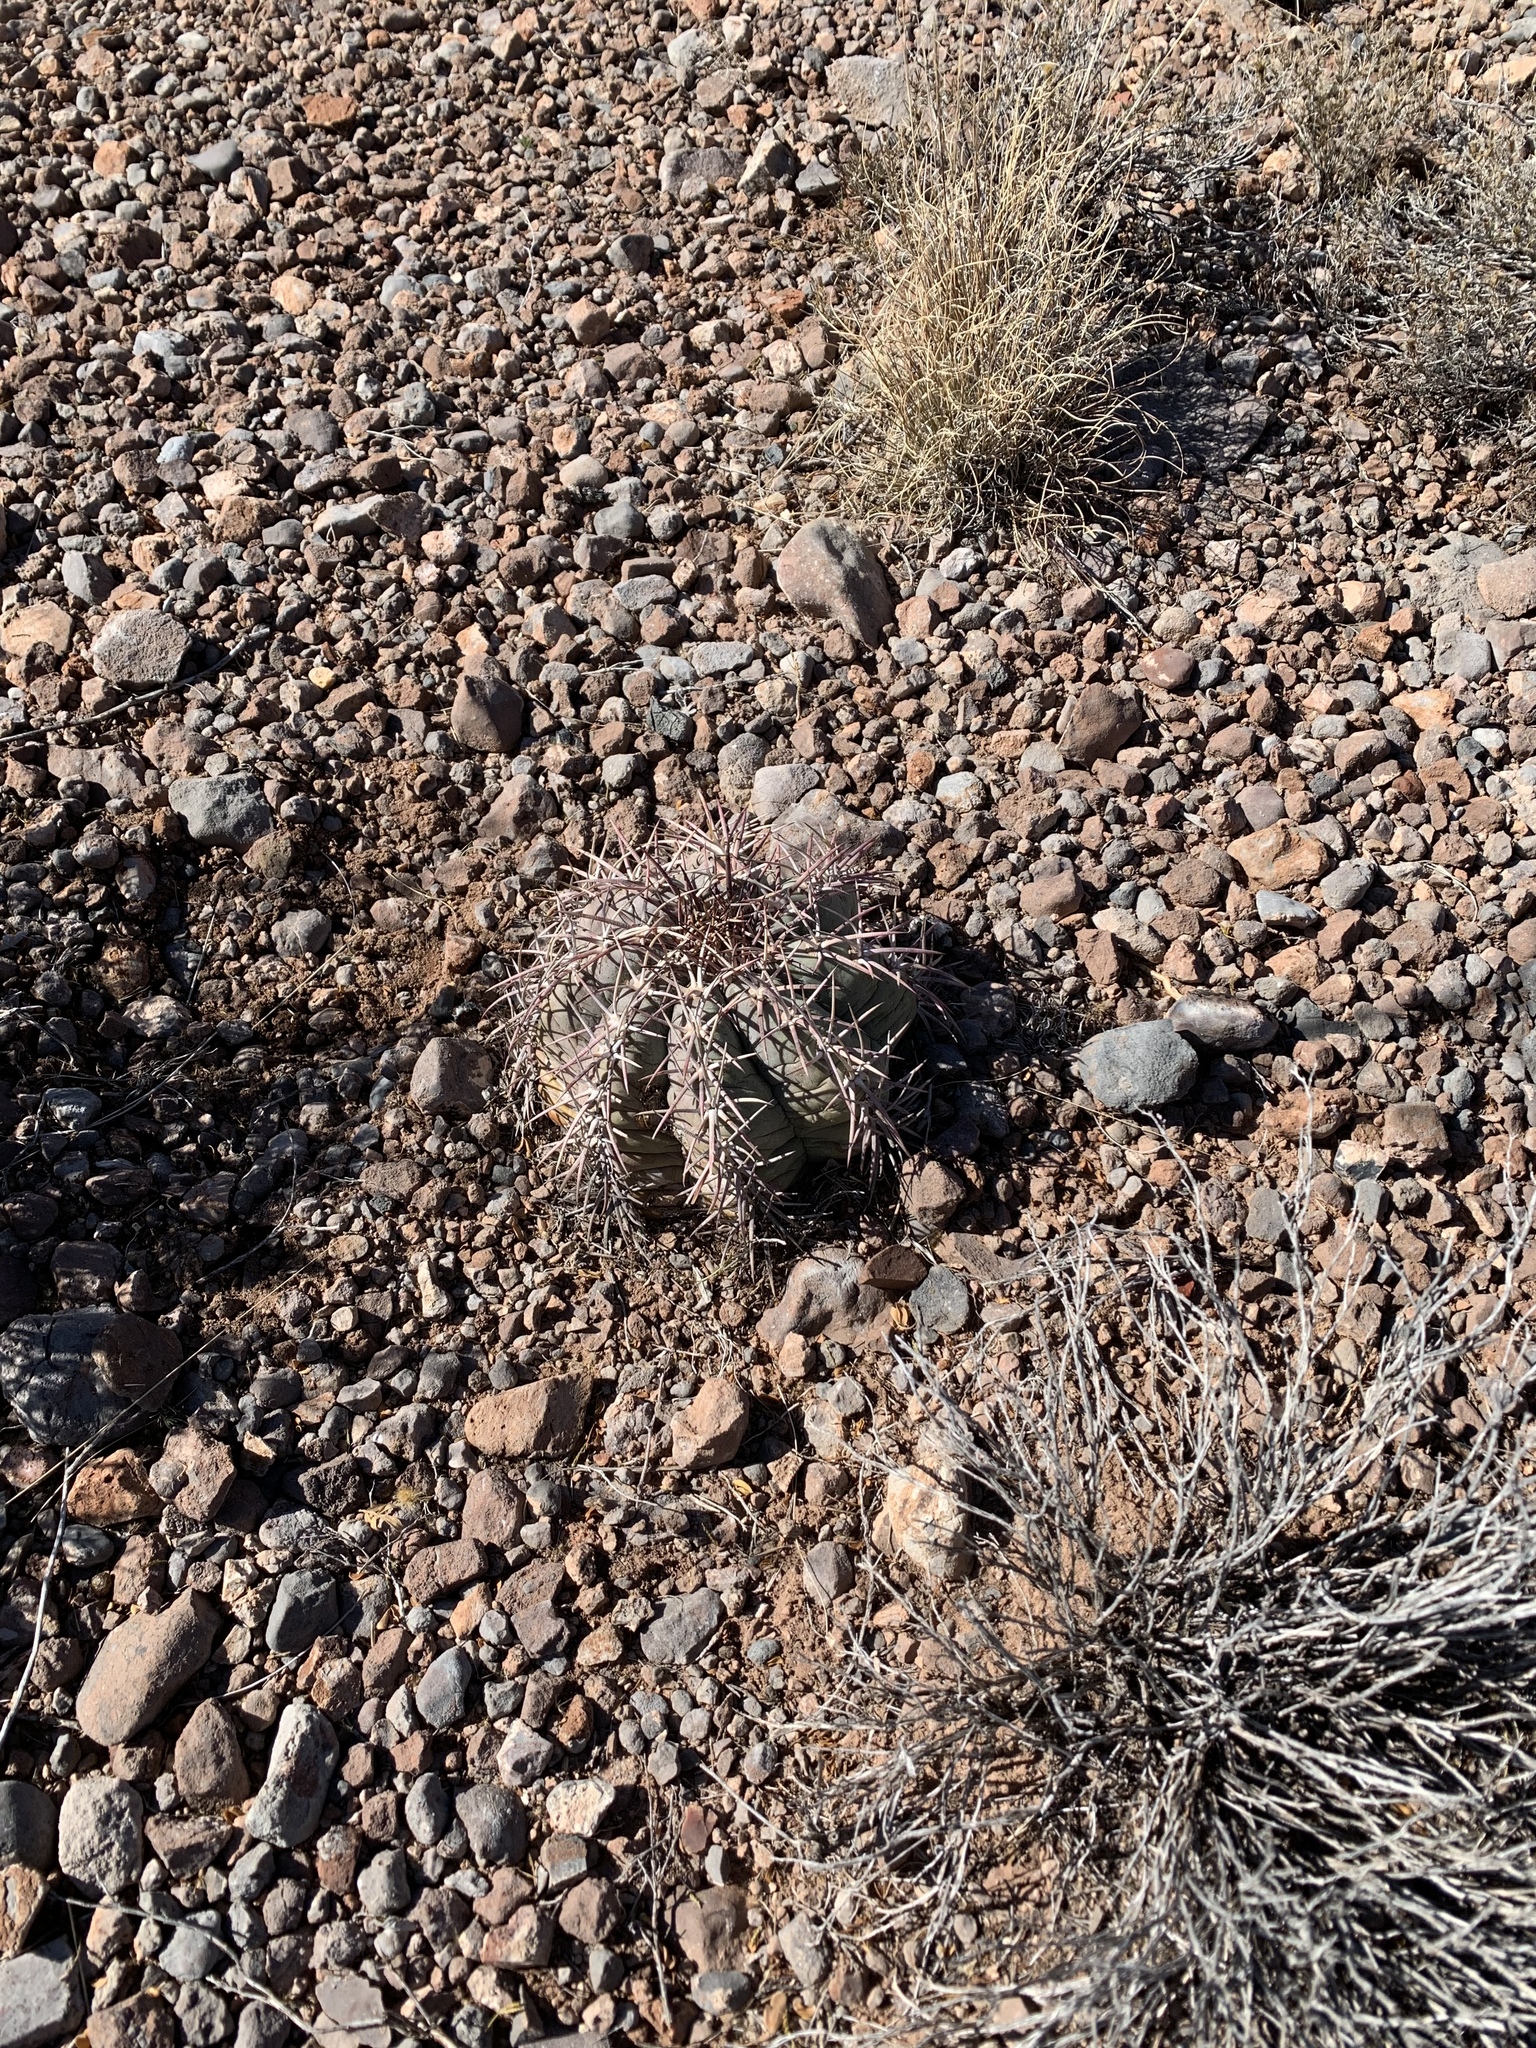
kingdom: Plantae
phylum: Tracheophyta
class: Magnoliopsida
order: Caryophyllales
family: Cactaceae
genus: Echinocactus
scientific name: Echinocactus horizonthalonius
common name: Devilshead
